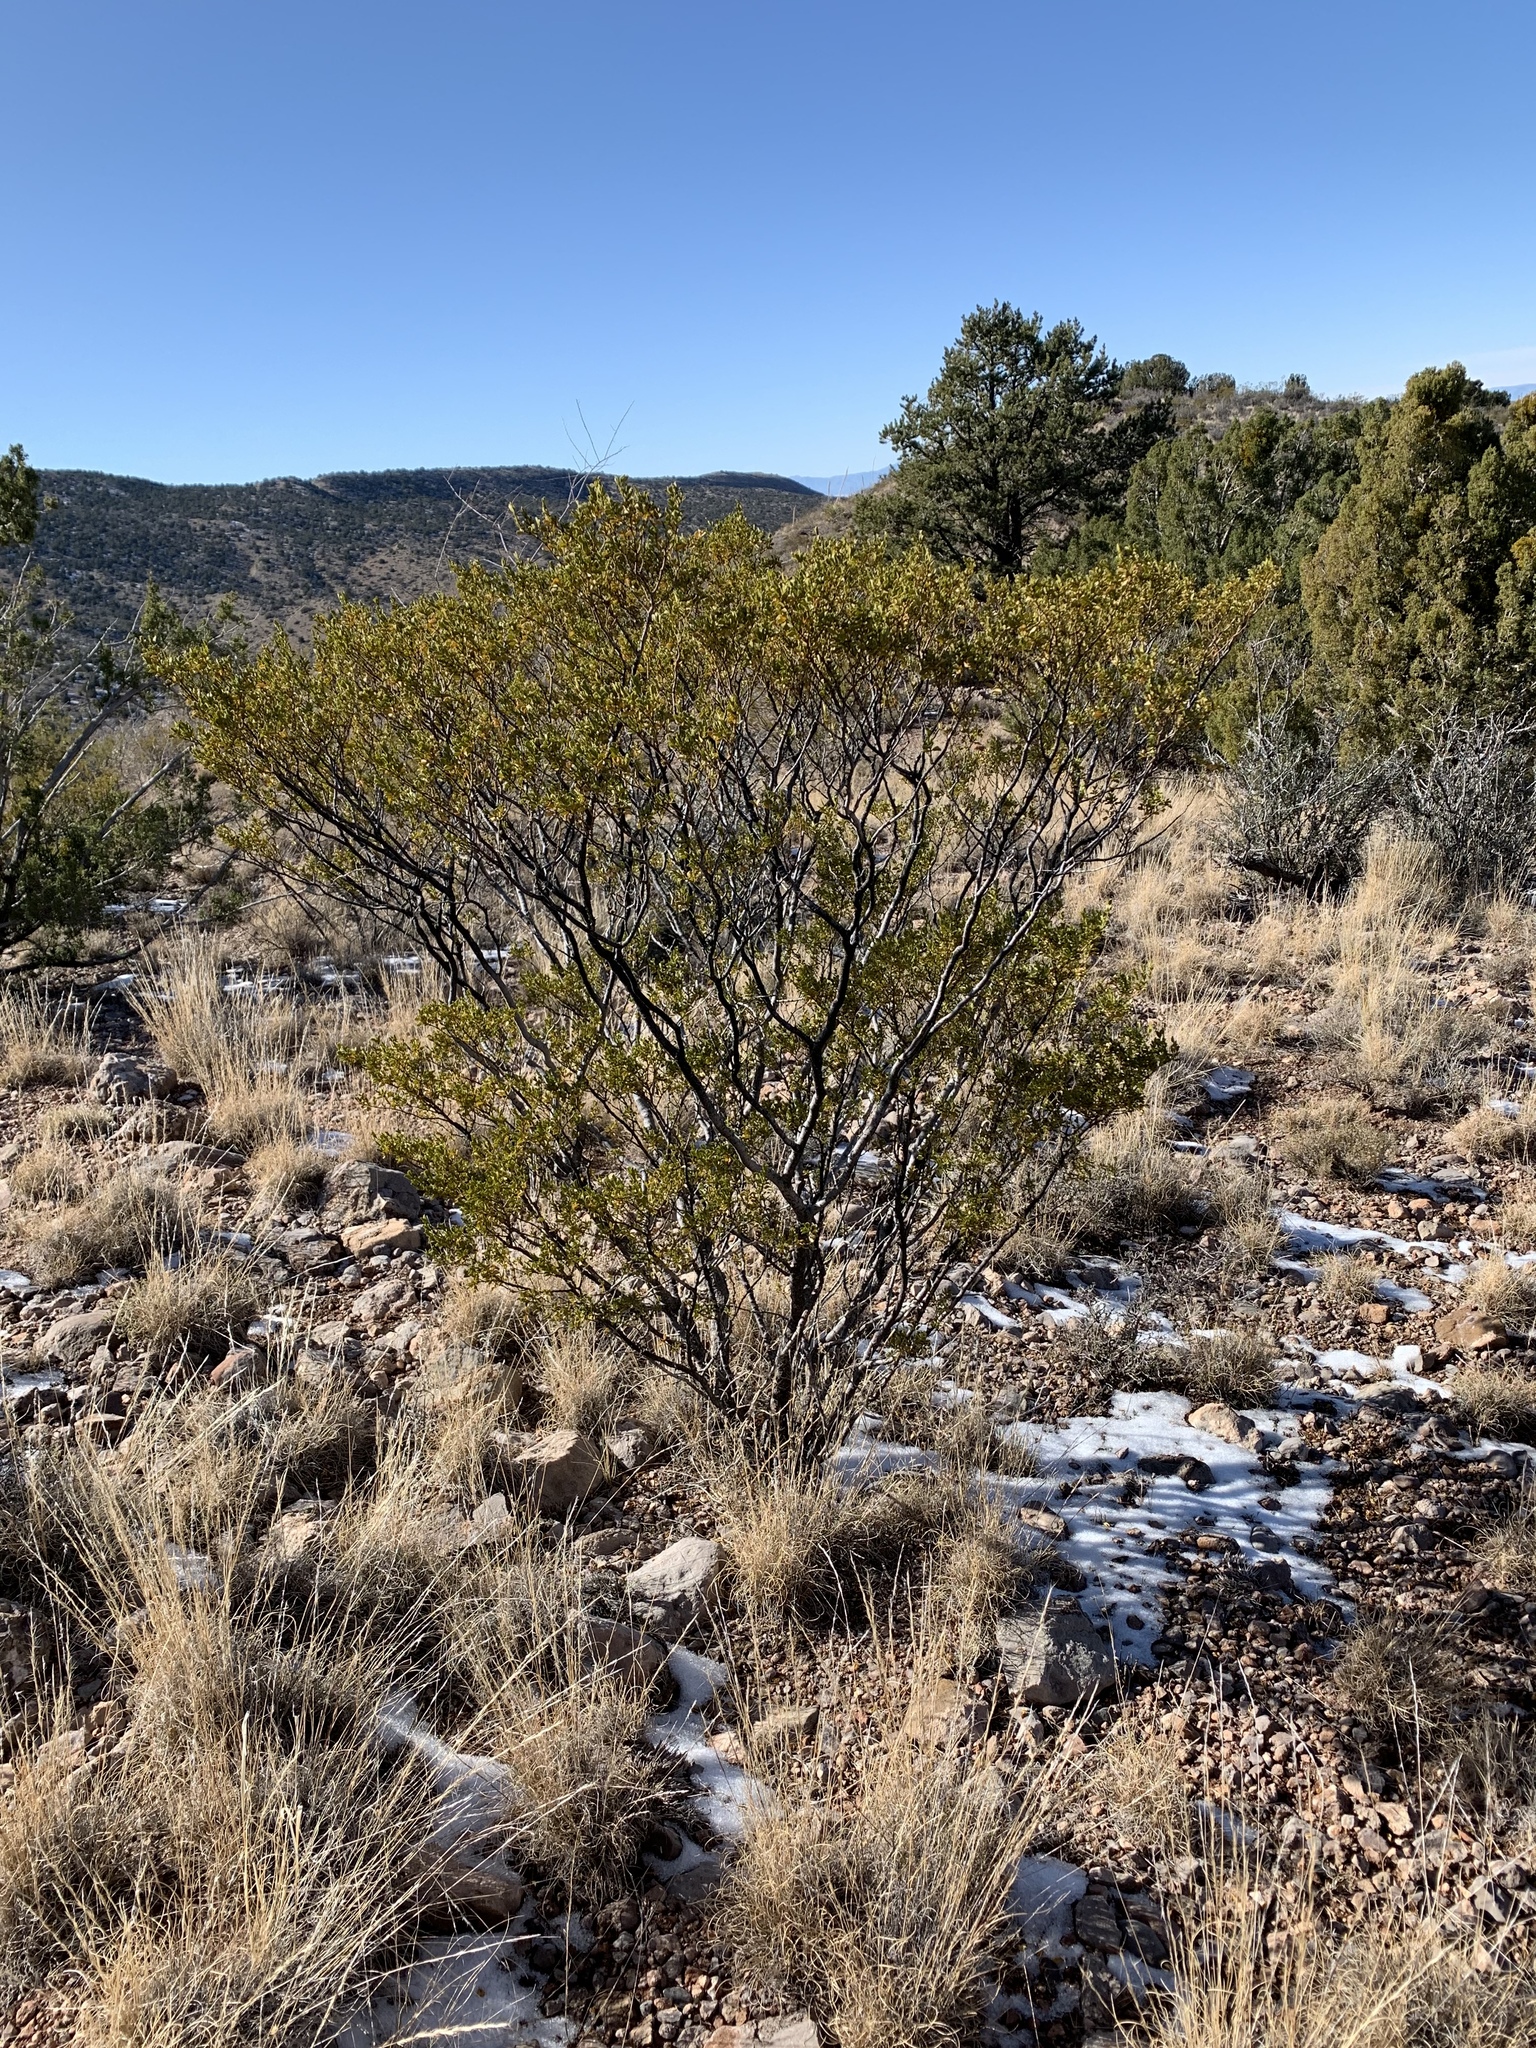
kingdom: Plantae
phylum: Tracheophyta
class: Magnoliopsida
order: Zygophyllales
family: Zygophyllaceae
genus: Larrea
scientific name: Larrea tridentata
